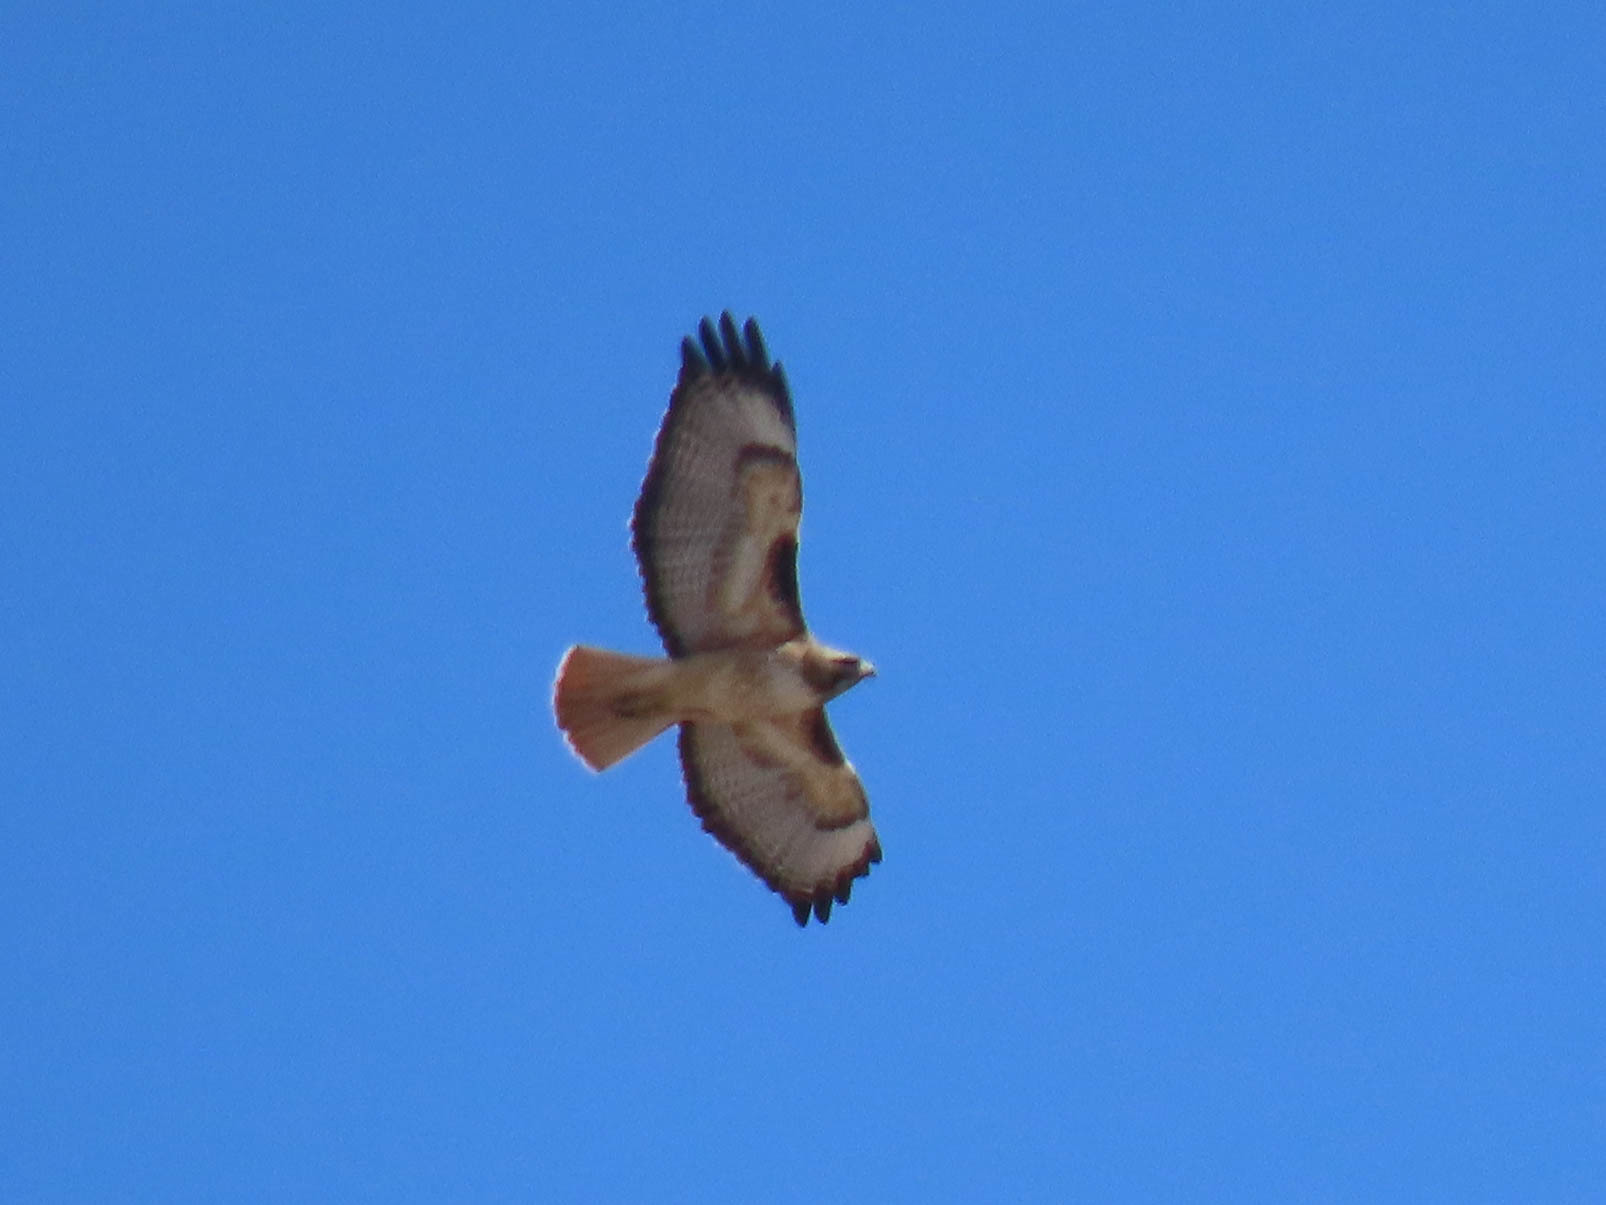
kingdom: Animalia
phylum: Chordata
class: Aves
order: Accipitriformes
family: Accipitridae
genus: Buteo
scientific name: Buteo jamaicensis
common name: Red-tailed hawk
